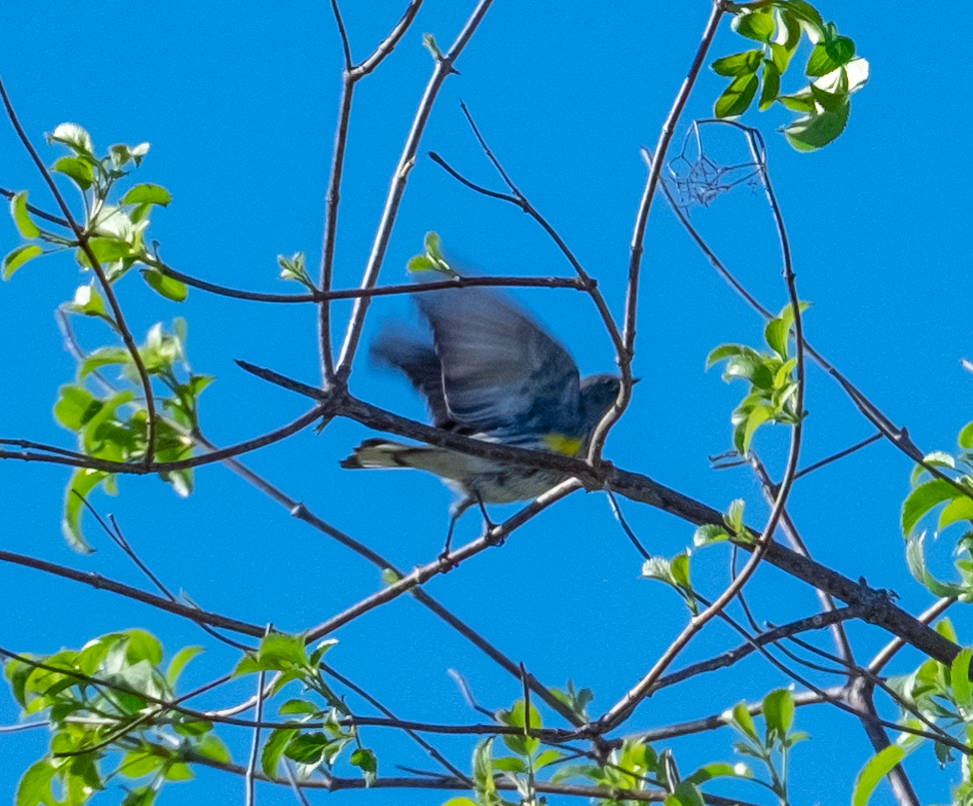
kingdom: Animalia
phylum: Chordata
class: Aves
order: Passeriformes
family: Parulidae
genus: Setophaga
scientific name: Setophaga coronata
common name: Myrtle warbler
